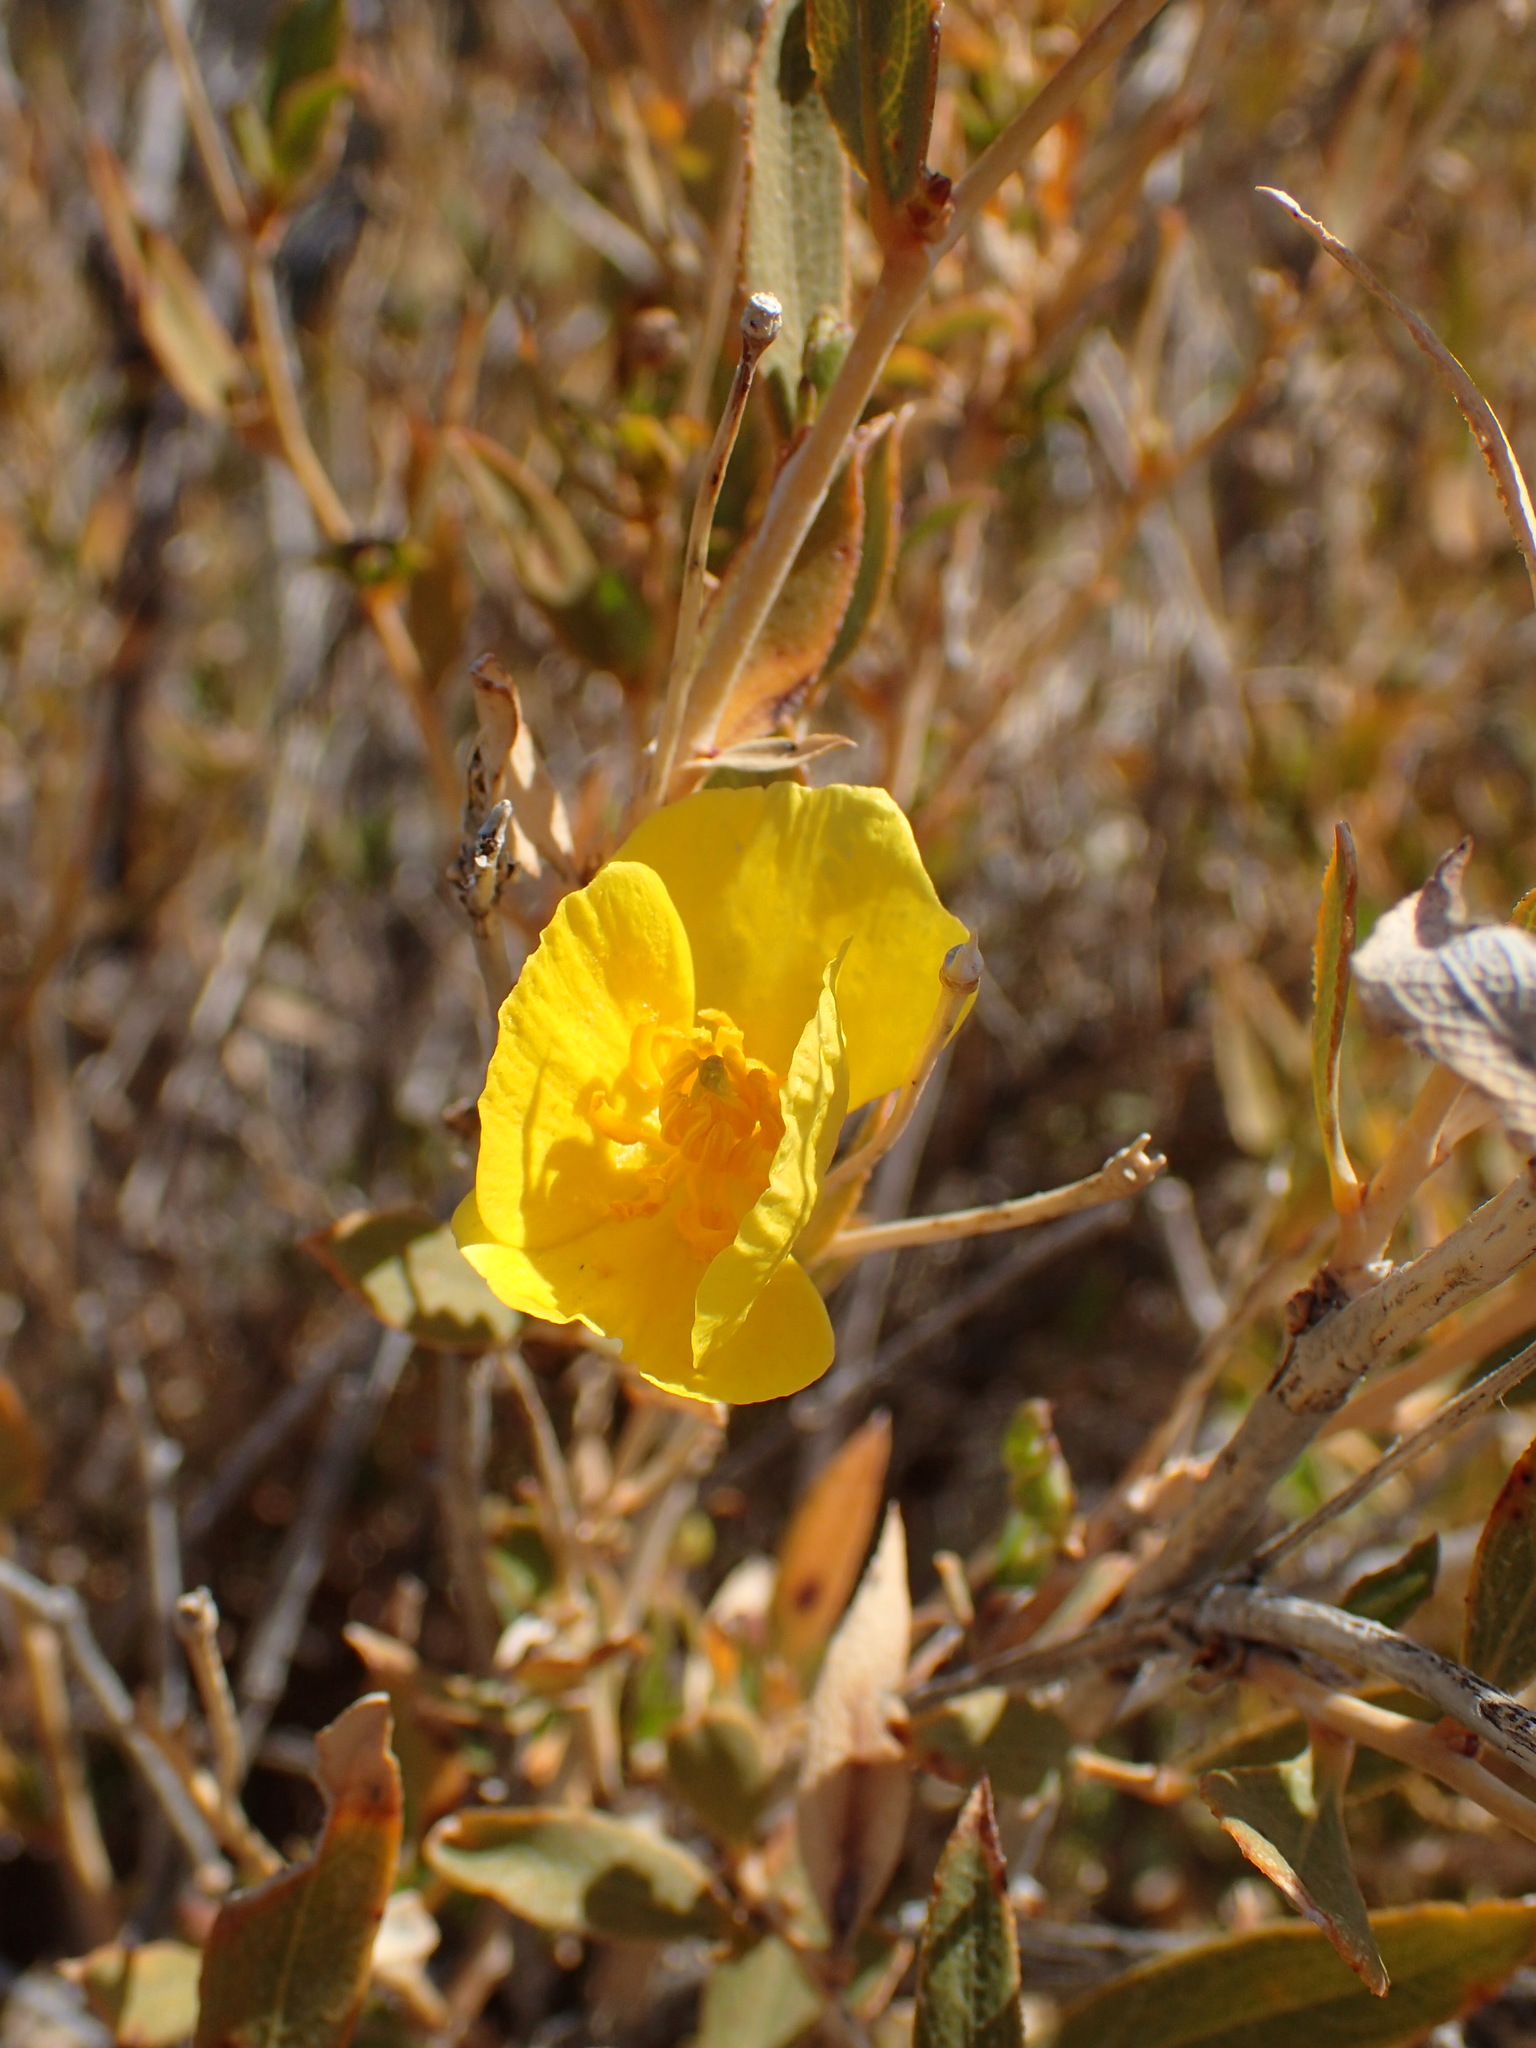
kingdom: Plantae
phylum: Tracheophyta
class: Magnoliopsida
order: Ranunculales
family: Papaveraceae
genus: Dendromecon
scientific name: Dendromecon rigida
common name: Tree poppy
